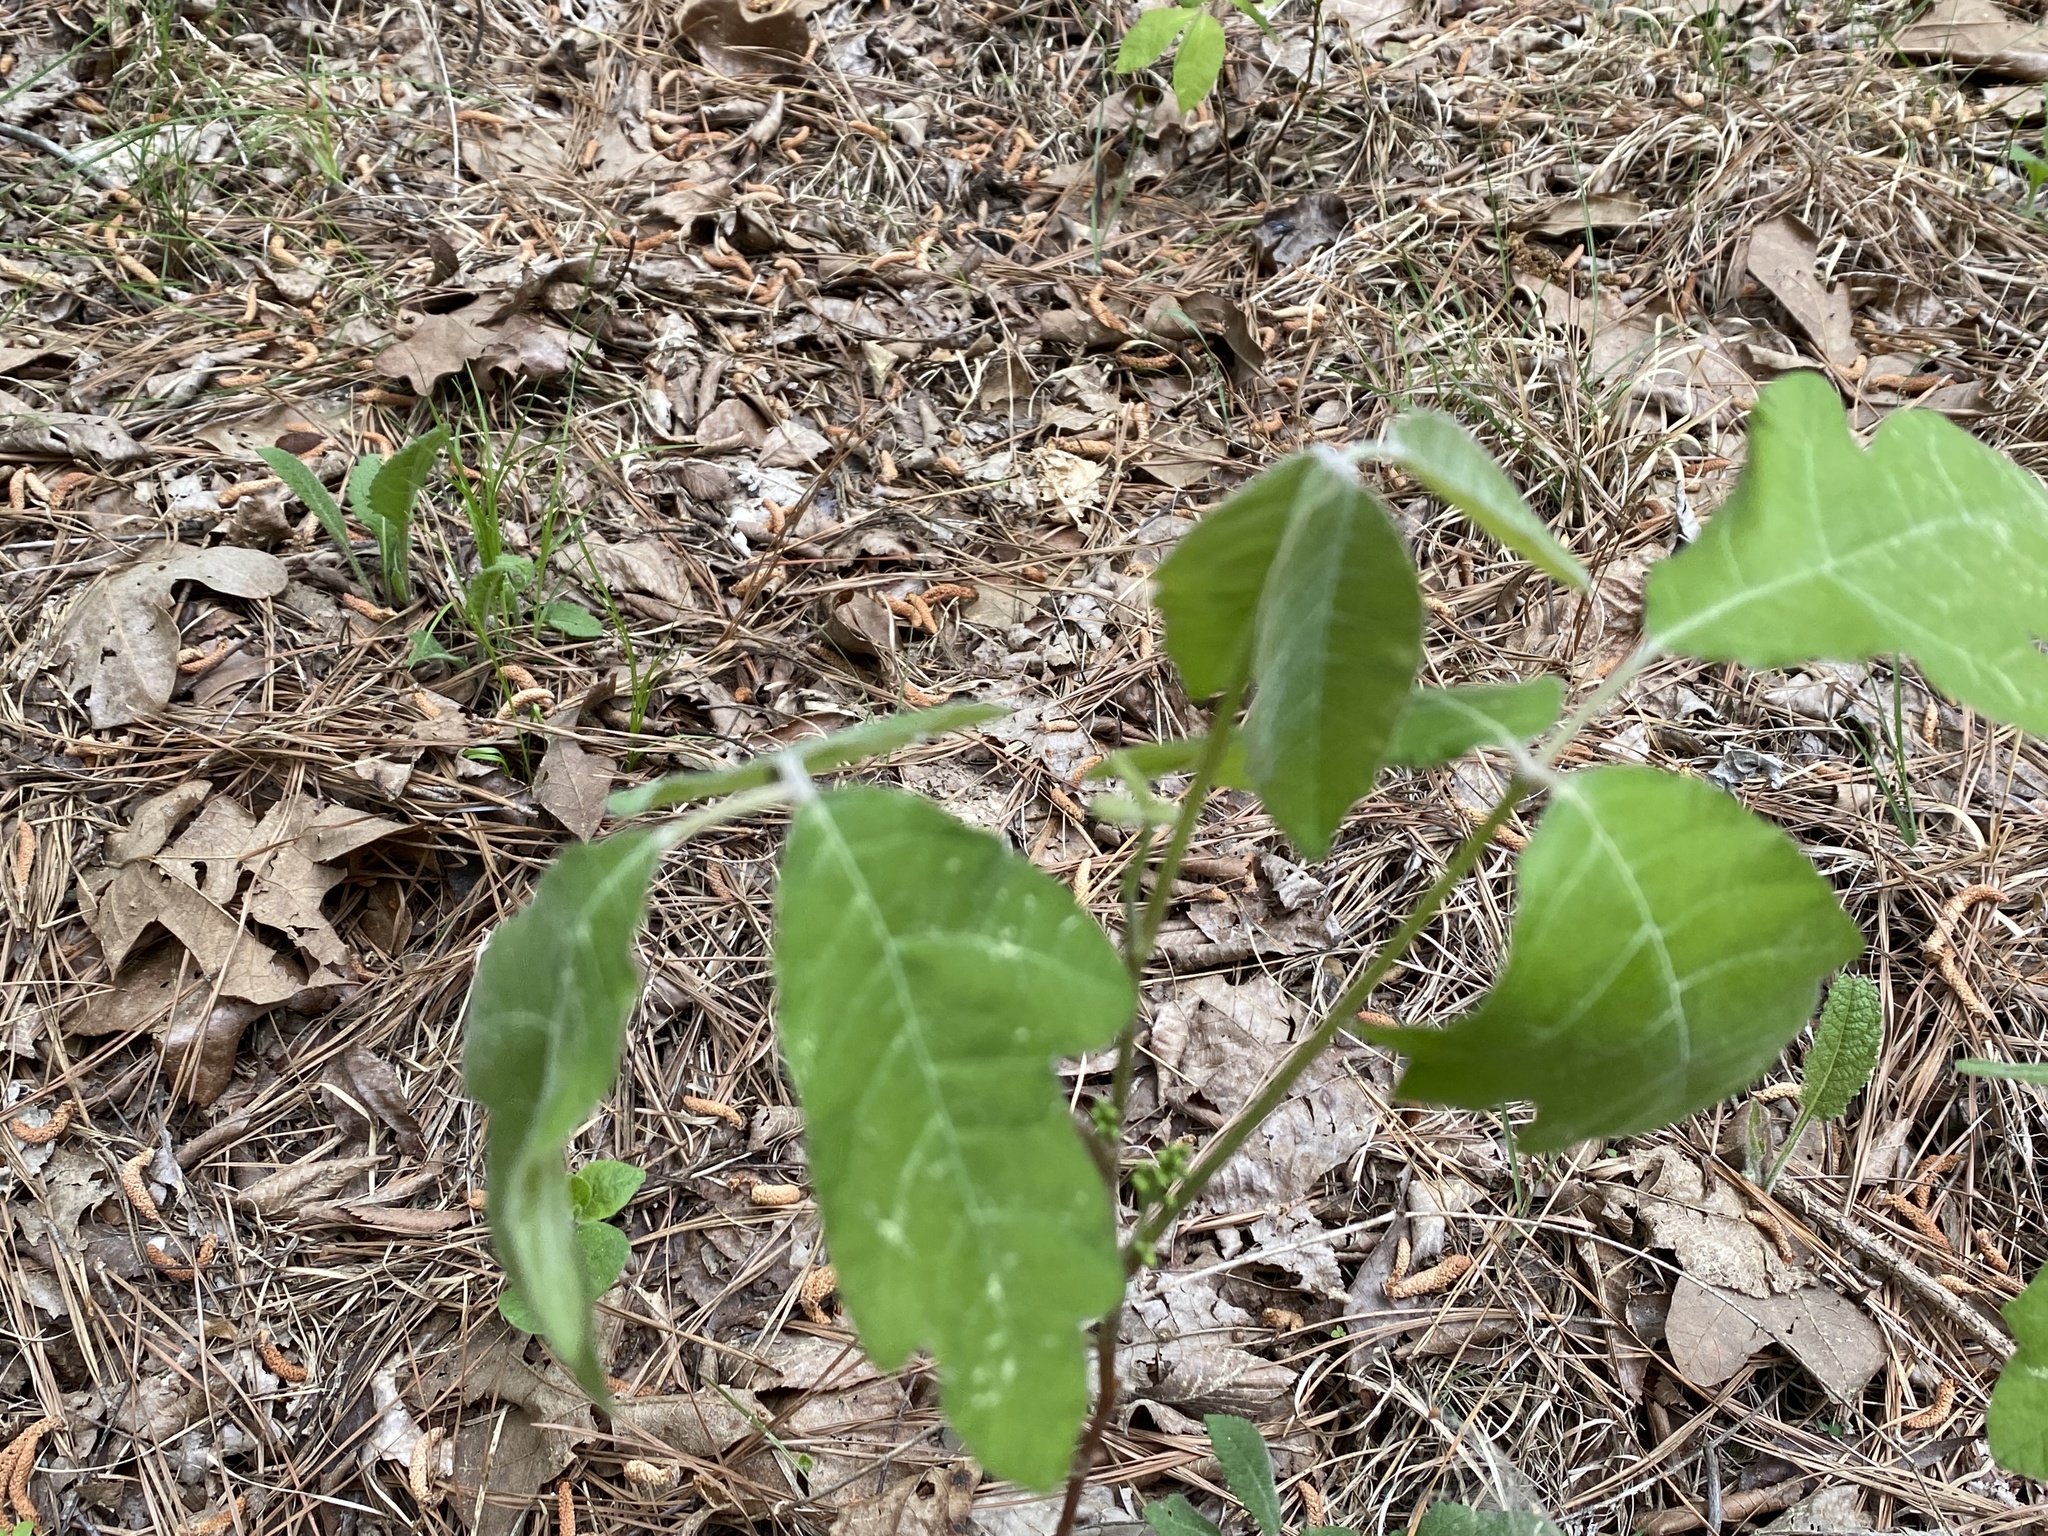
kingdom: Plantae
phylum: Tracheophyta
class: Magnoliopsida
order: Sapindales
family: Anacardiaceae
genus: Toxicodendron
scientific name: Toxicodendron pubescens
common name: Eastern poison-oak
